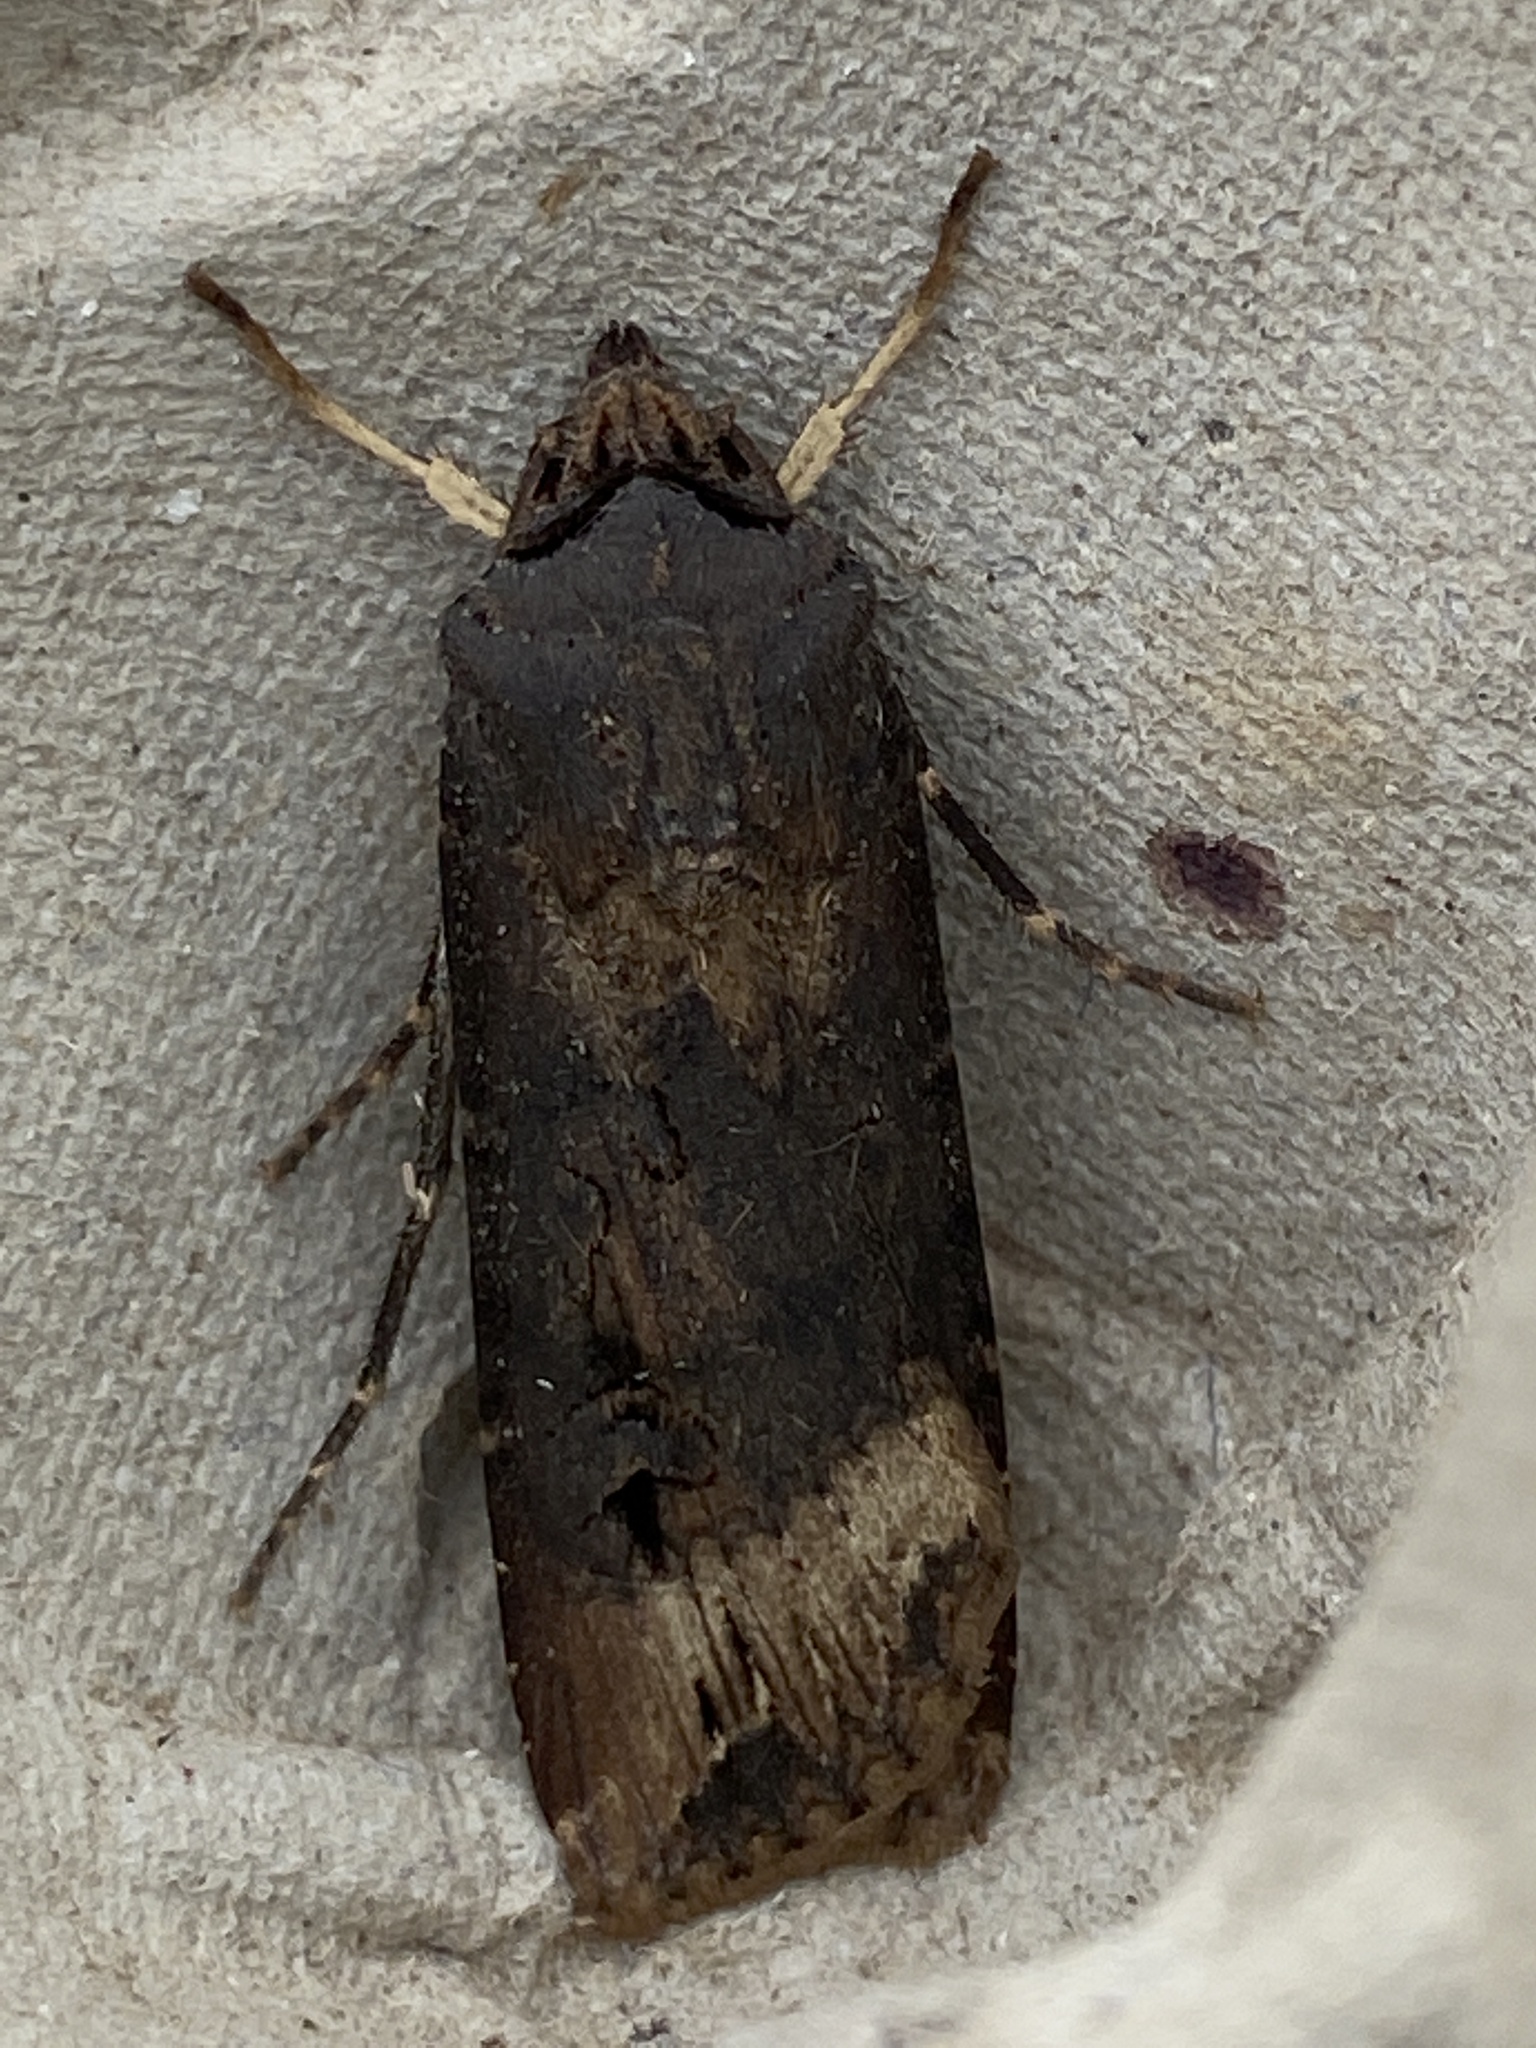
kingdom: Animalia
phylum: Arthropoda
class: Insecta
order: Lepidoptera
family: Noctuidae
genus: Agrotis
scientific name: Agrotis ipsilon
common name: Dark sword-grass
